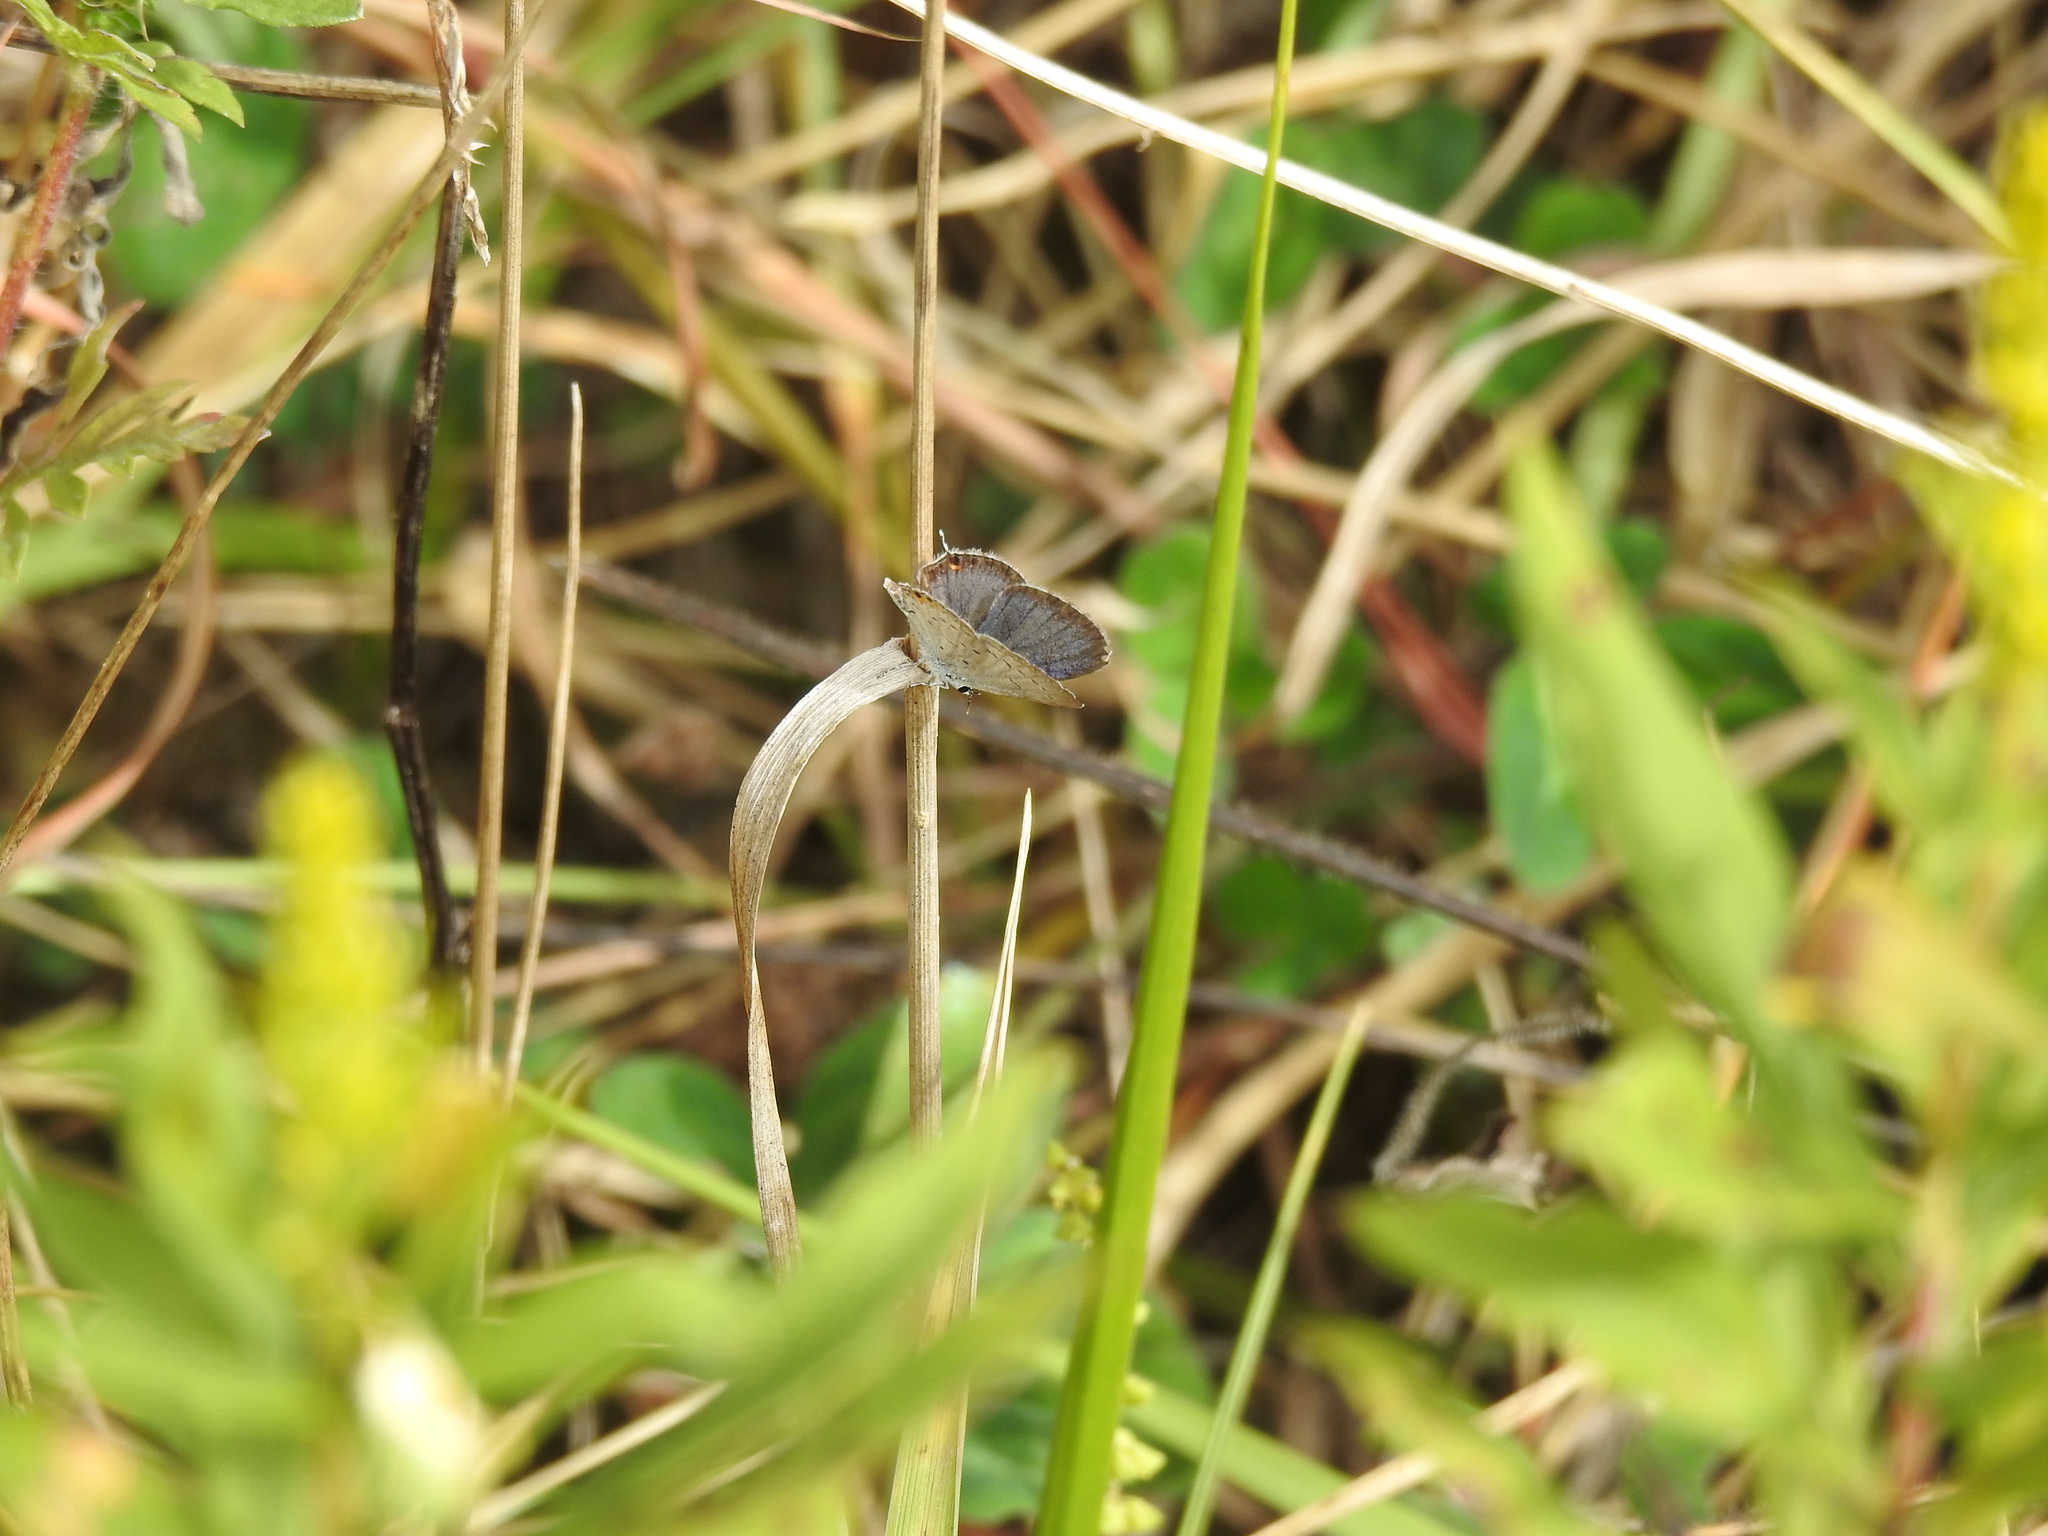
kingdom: Animalia
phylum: Arthropoda
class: Insecta
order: Lepidoptera
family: Lycaenidae
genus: Elkalyce
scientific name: Elkalyce comyntas
